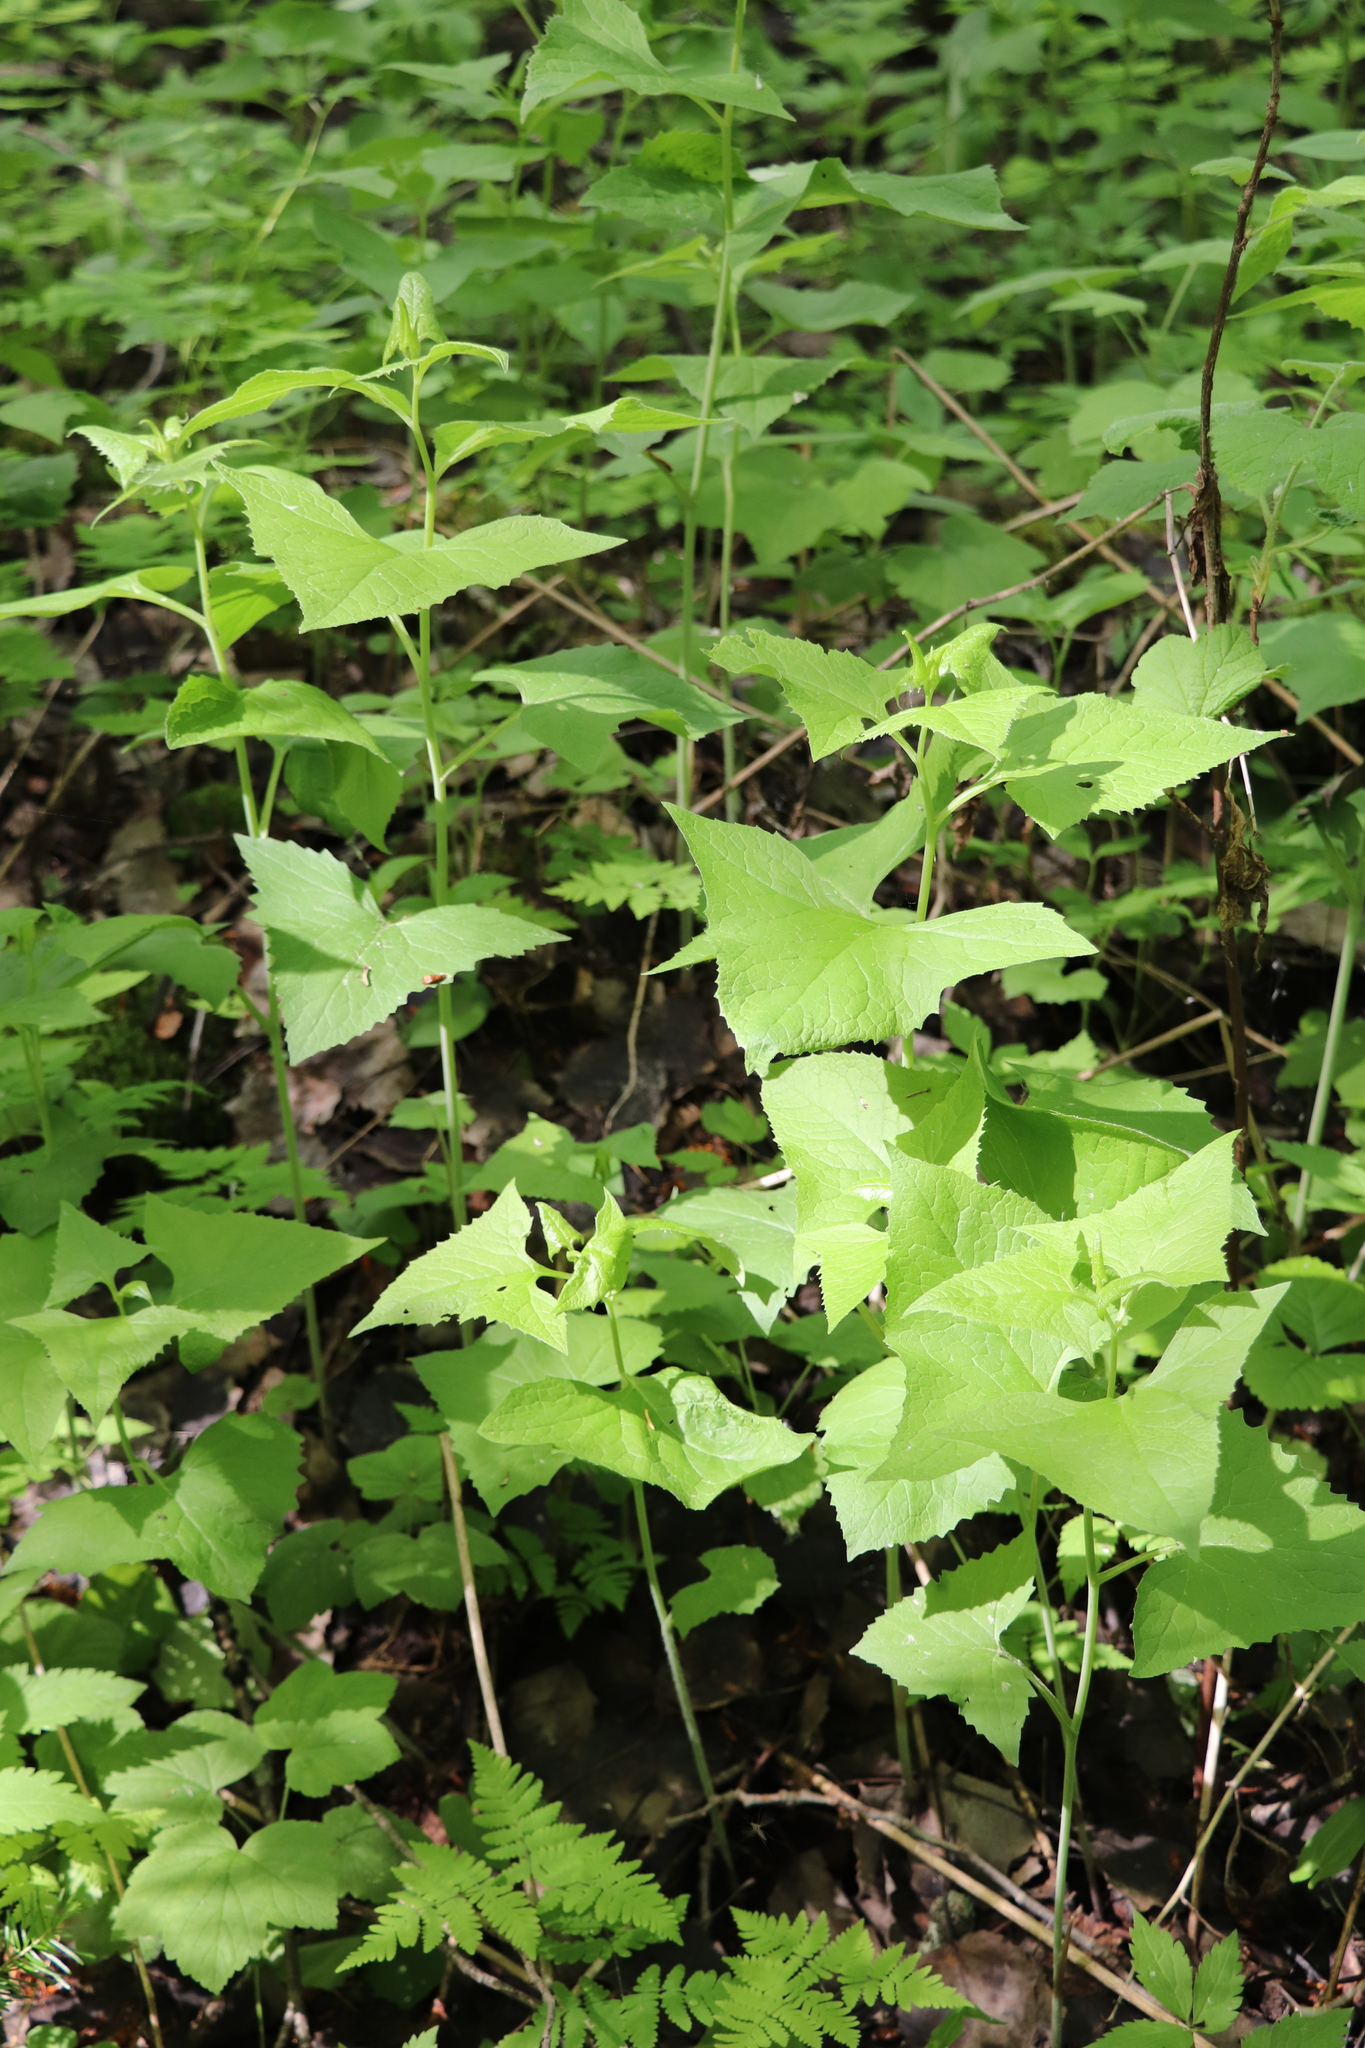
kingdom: Plantae
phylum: Tracheophyta
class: Magnoliopsida
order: Asterales
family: Asteraceae
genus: Parasenecio
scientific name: Parasenecio hastatus
